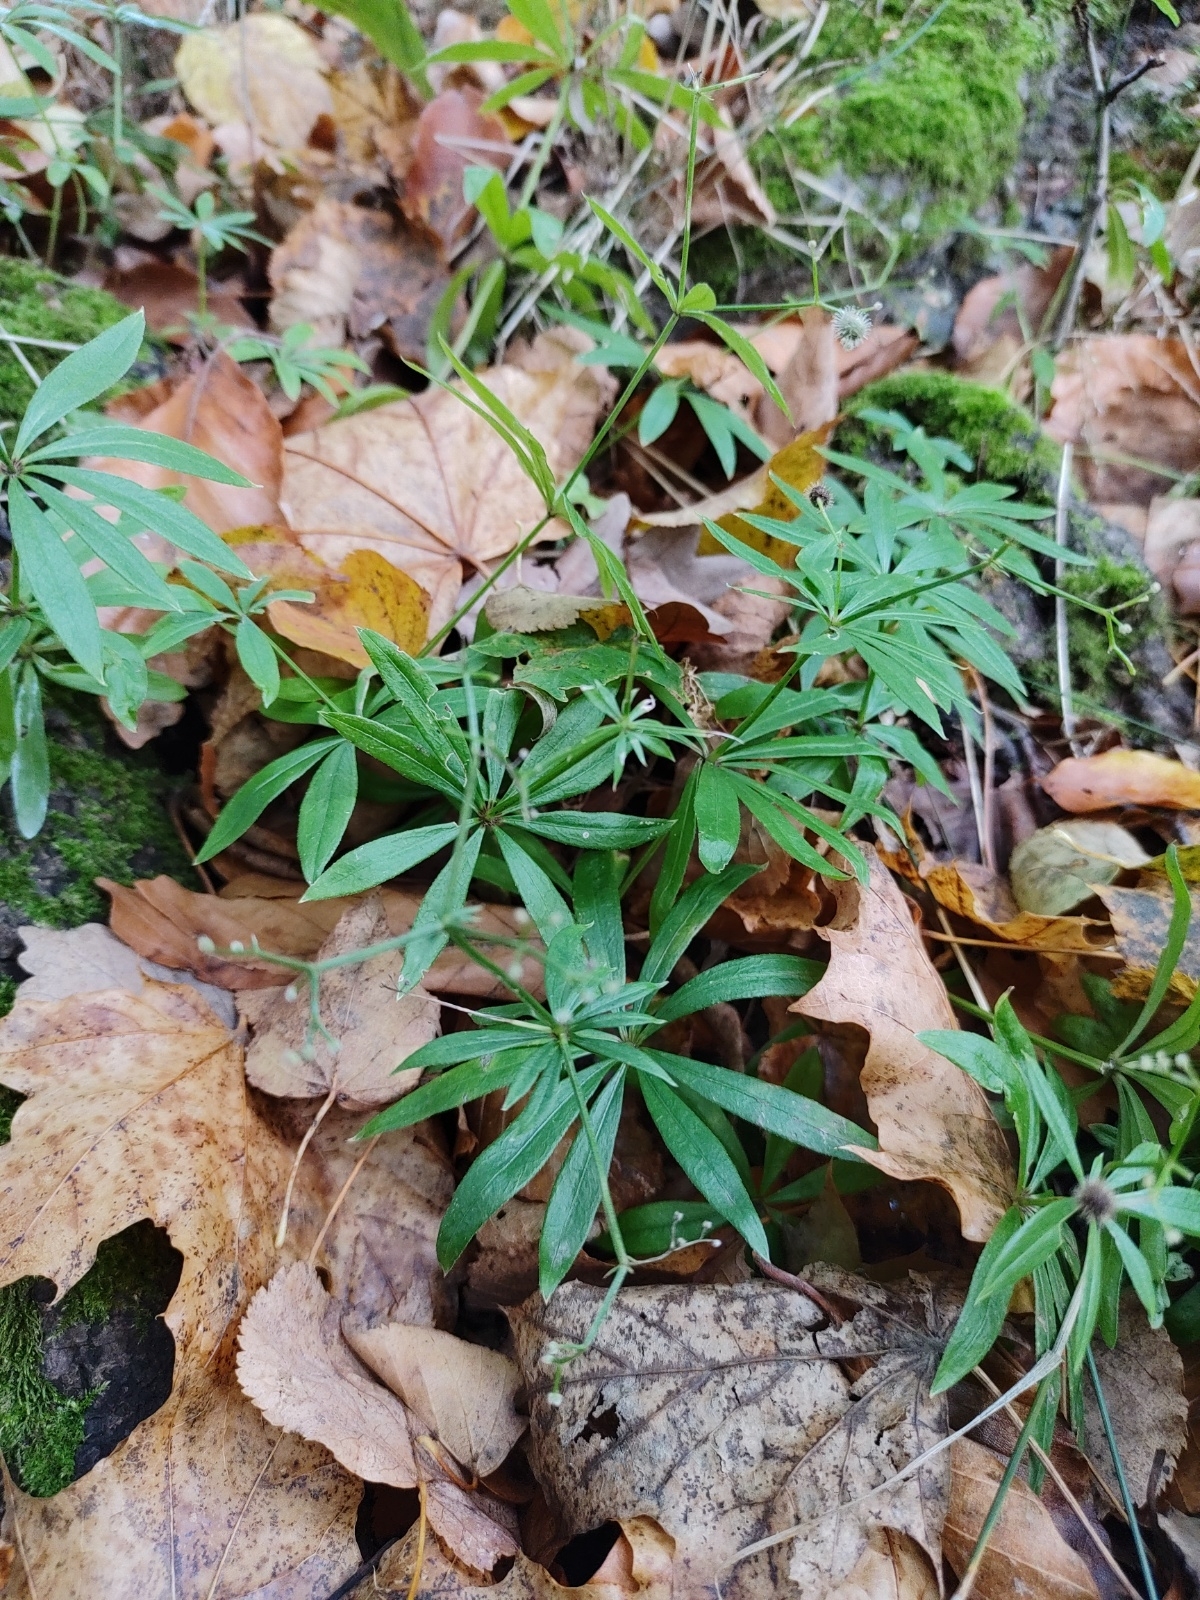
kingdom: Plantae
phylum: Tracheophyta
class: Magnoliopsida
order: Gentianales
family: Rubiaceae
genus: Galium
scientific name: Galium odoratum
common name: Sweet woodruff
